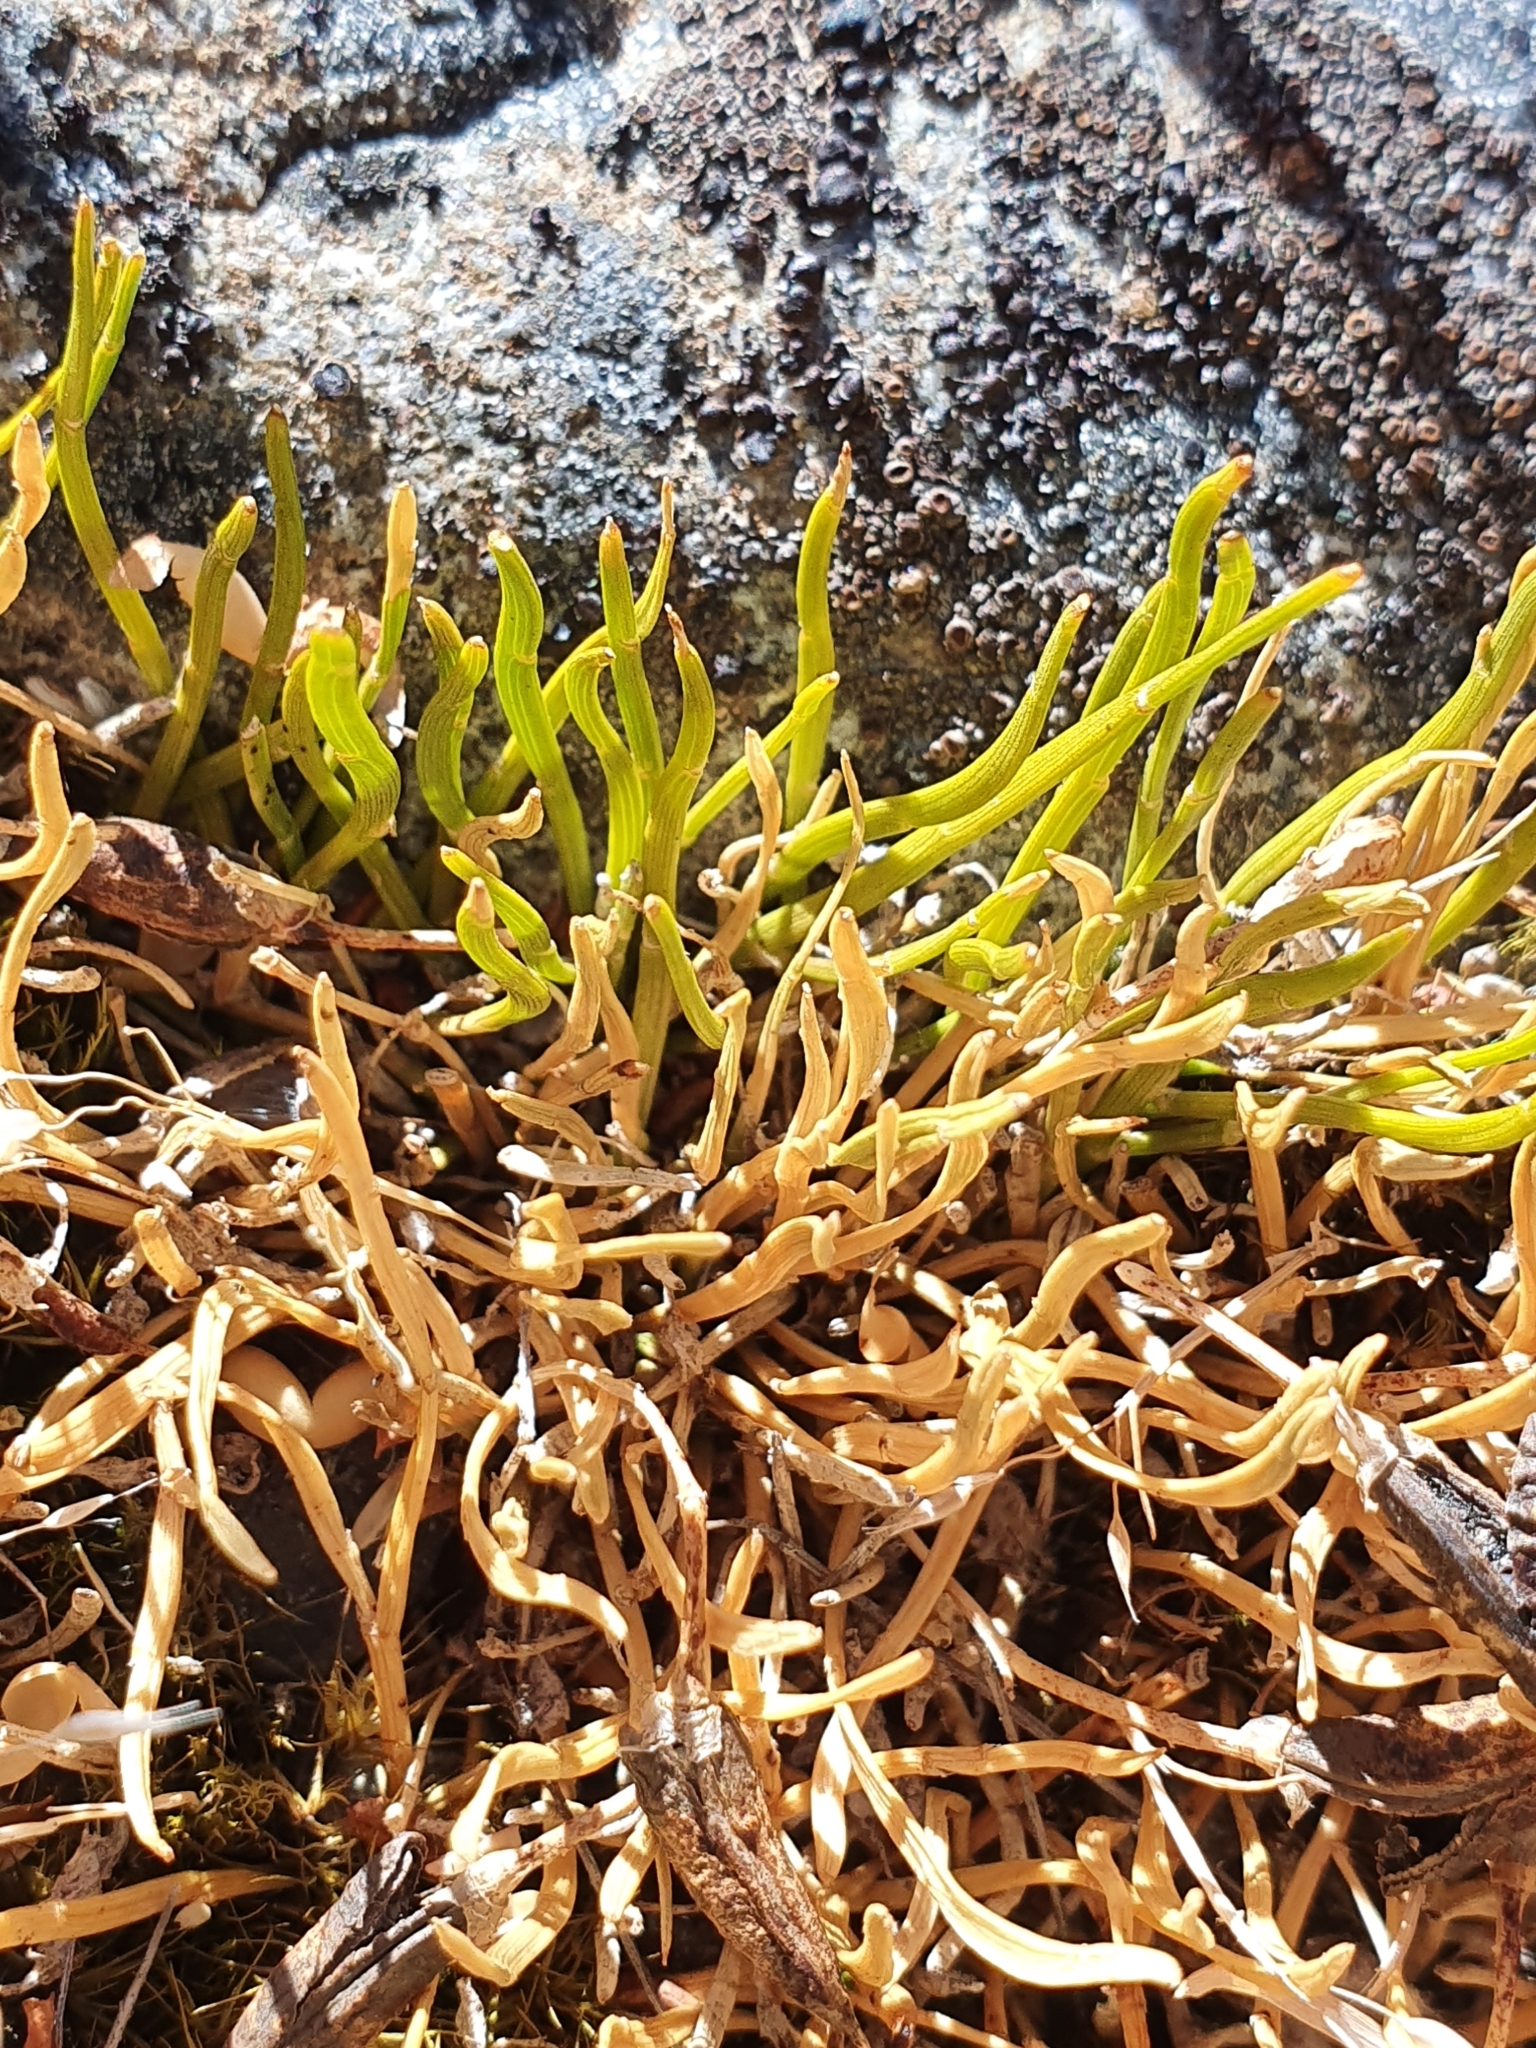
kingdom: Plantae
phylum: Tracheophyta
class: Magnoliopsida
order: Fabales
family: Fabaceae
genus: Carmichaelia
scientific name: Carmichaelia uniflora
